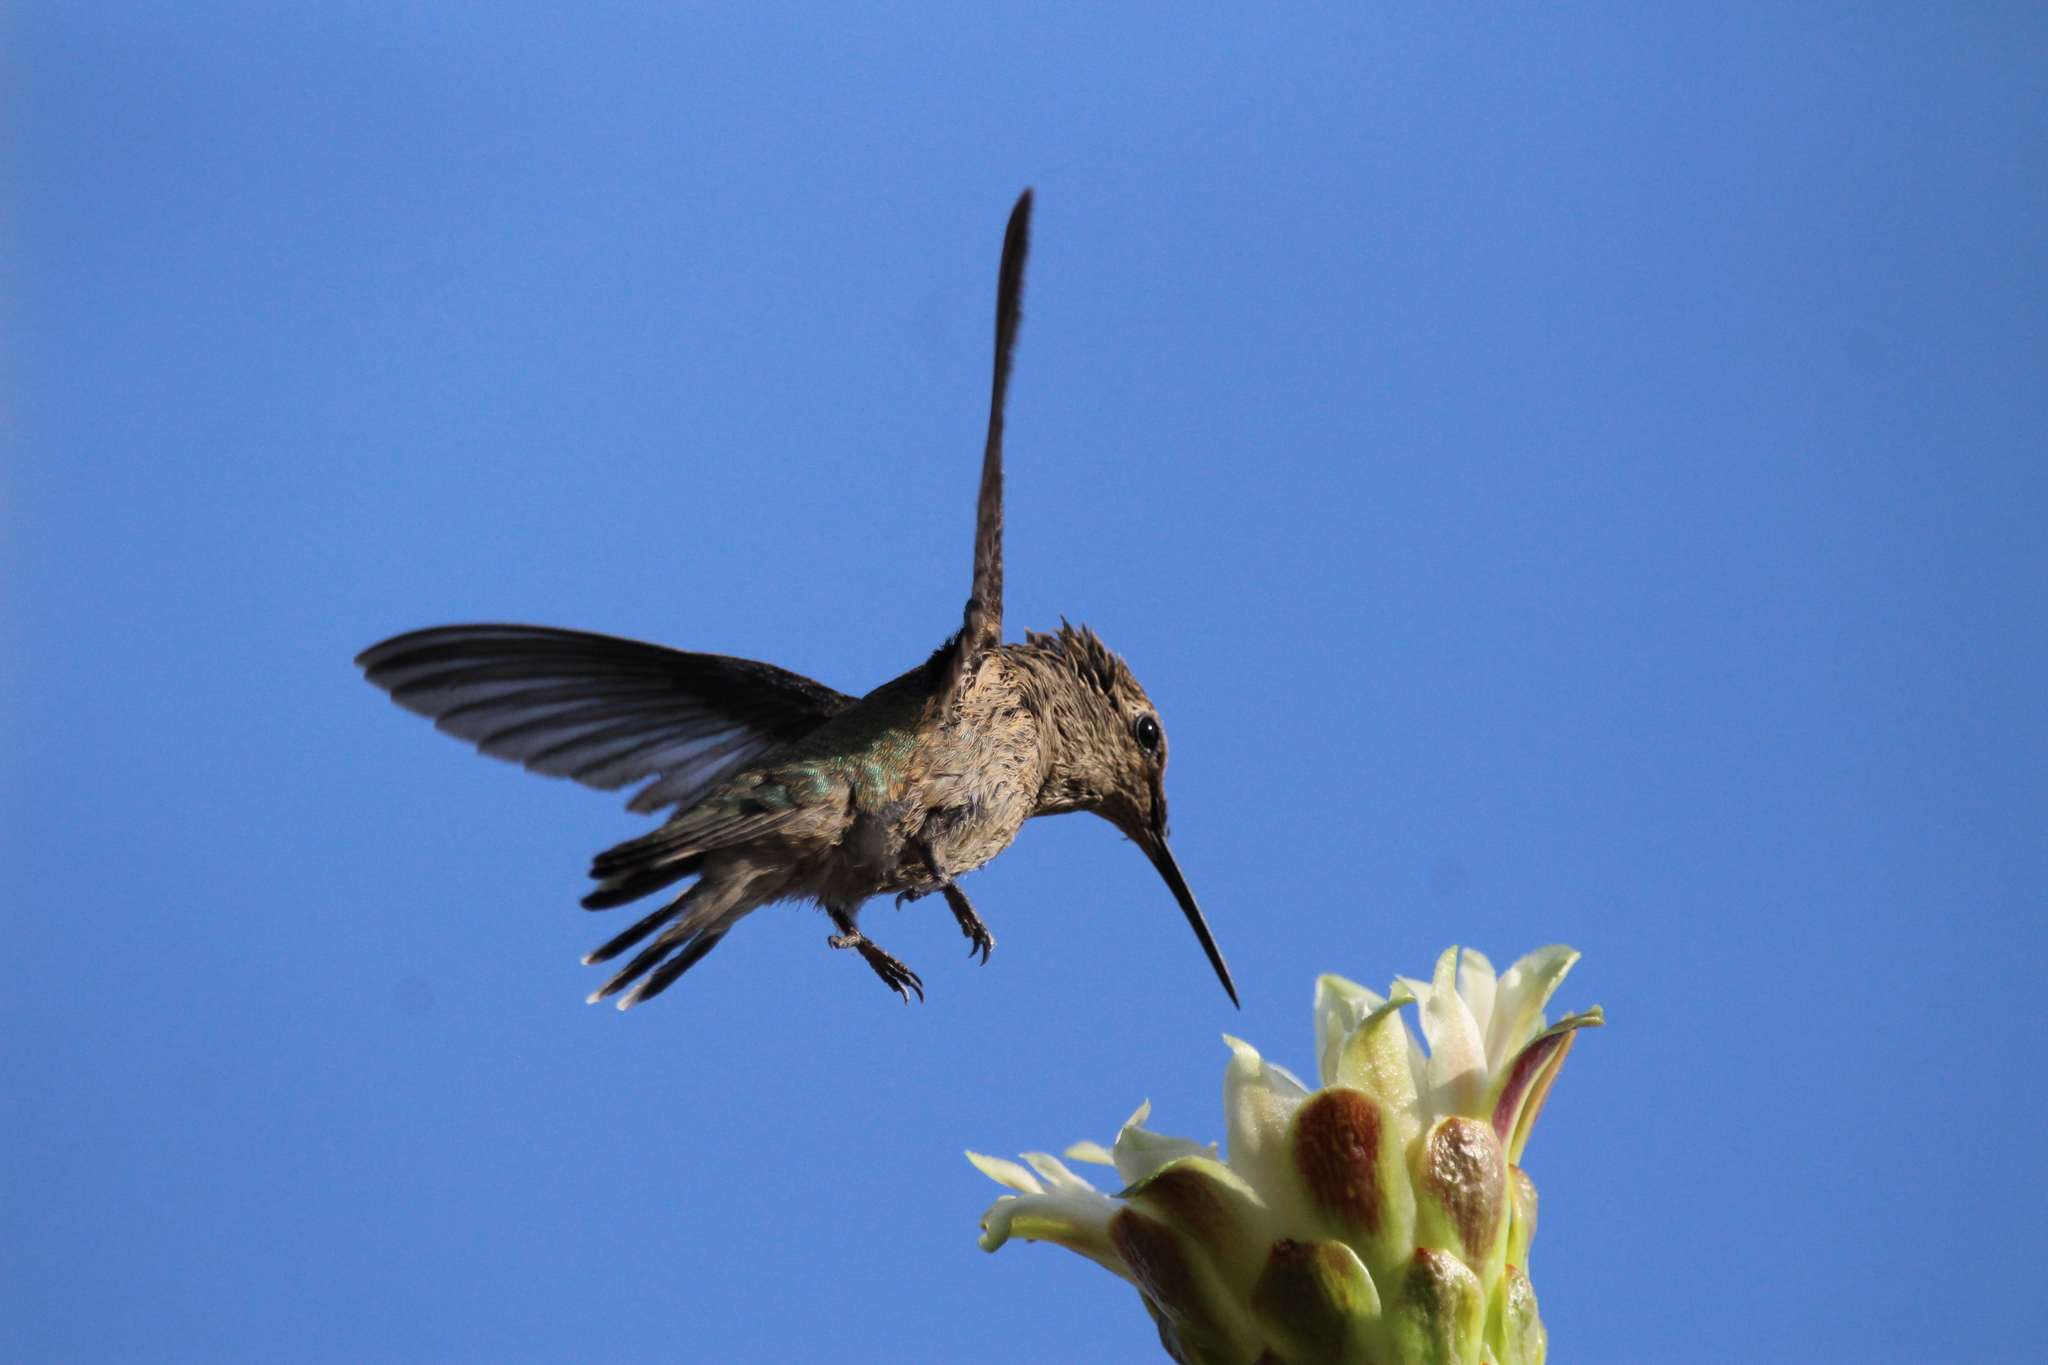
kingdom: Animalia
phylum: Chordata
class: Aves
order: Apodiformes
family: Trochilidae
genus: Calypte
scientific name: Calypte anna
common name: Anna's hummingbird
